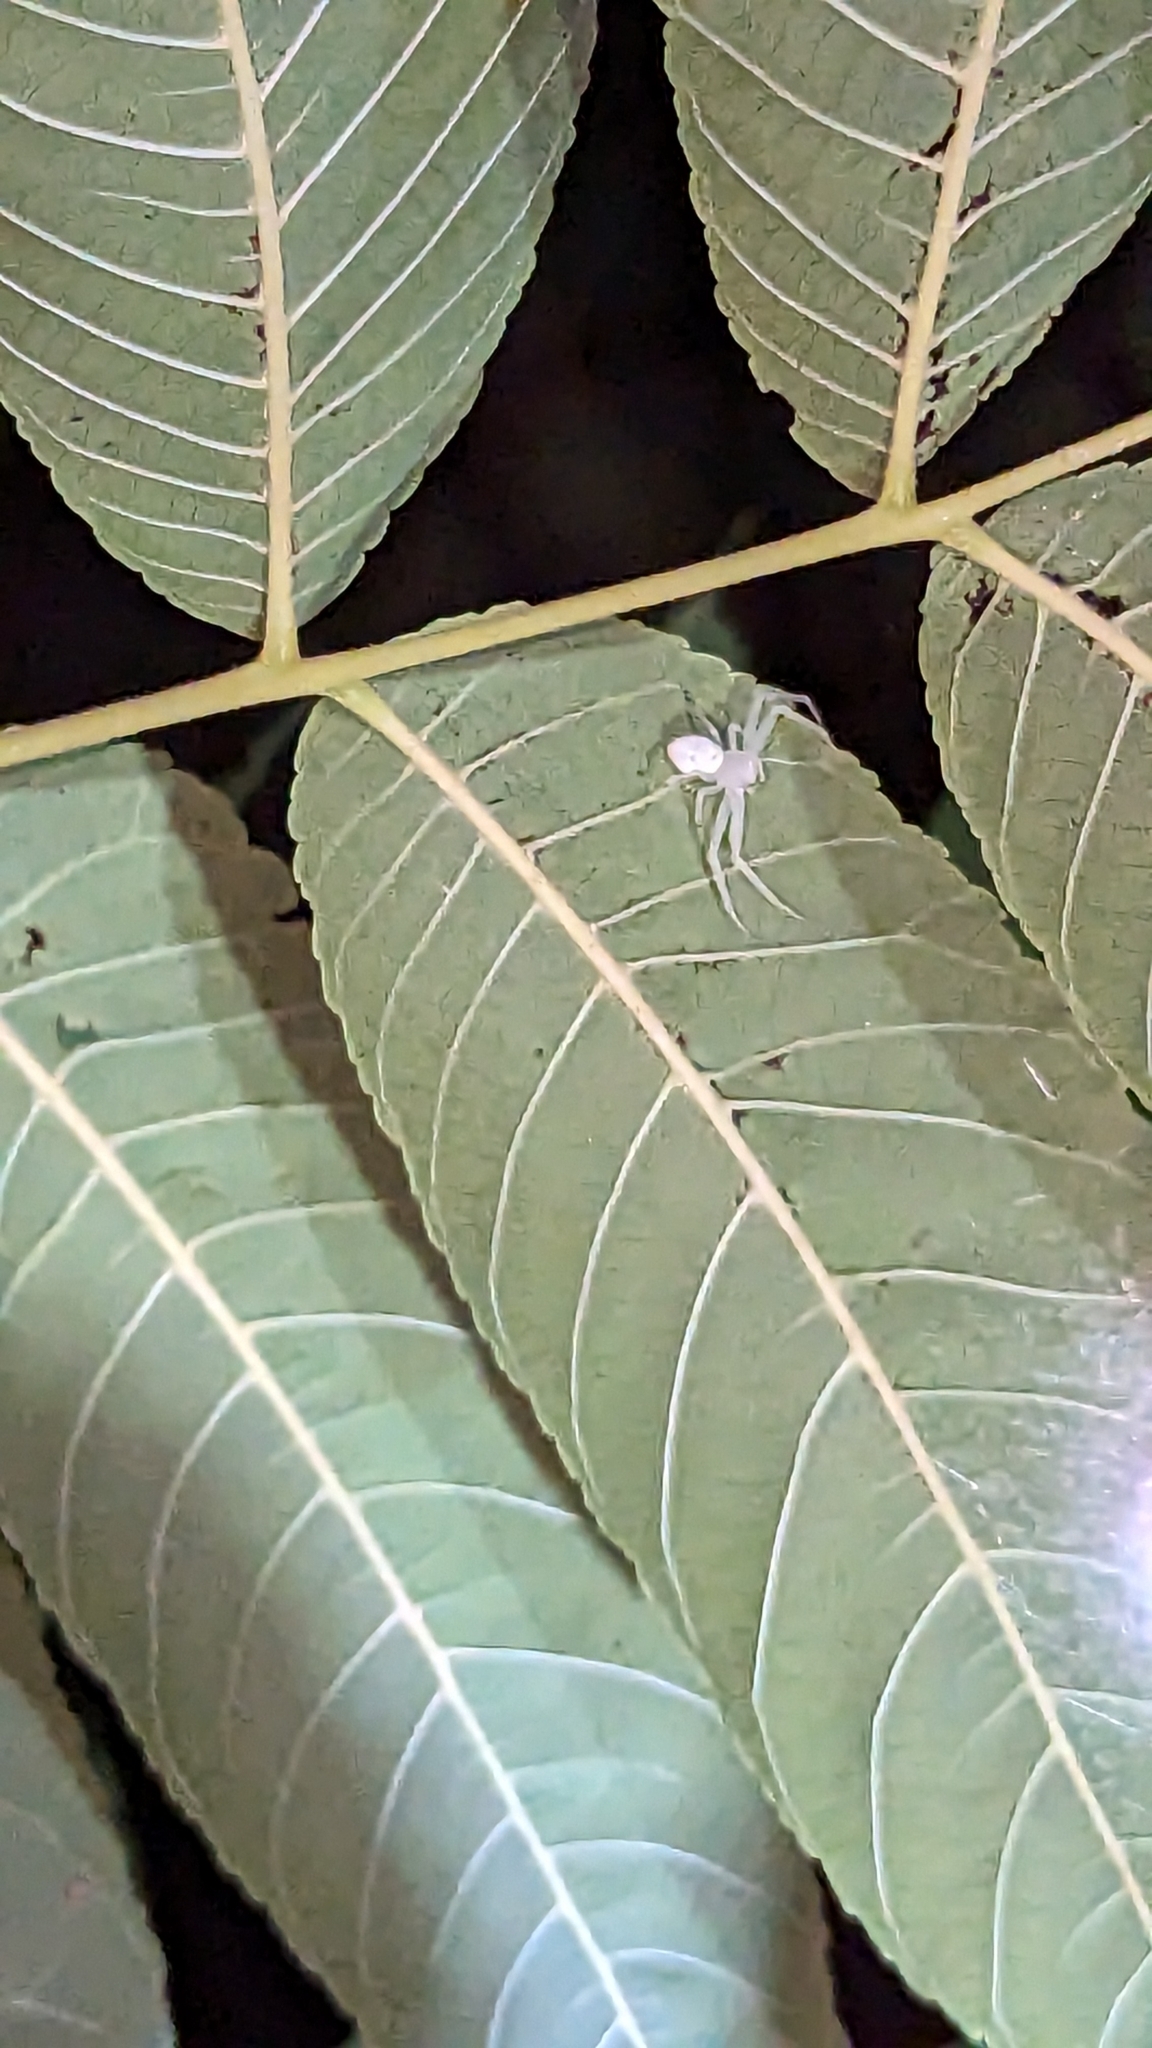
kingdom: Animalia
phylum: Arthropoda
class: Arachnida
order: Araneae
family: Thomisidae
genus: Misumessus
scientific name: Misumessus oblongus
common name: American green crab spider
